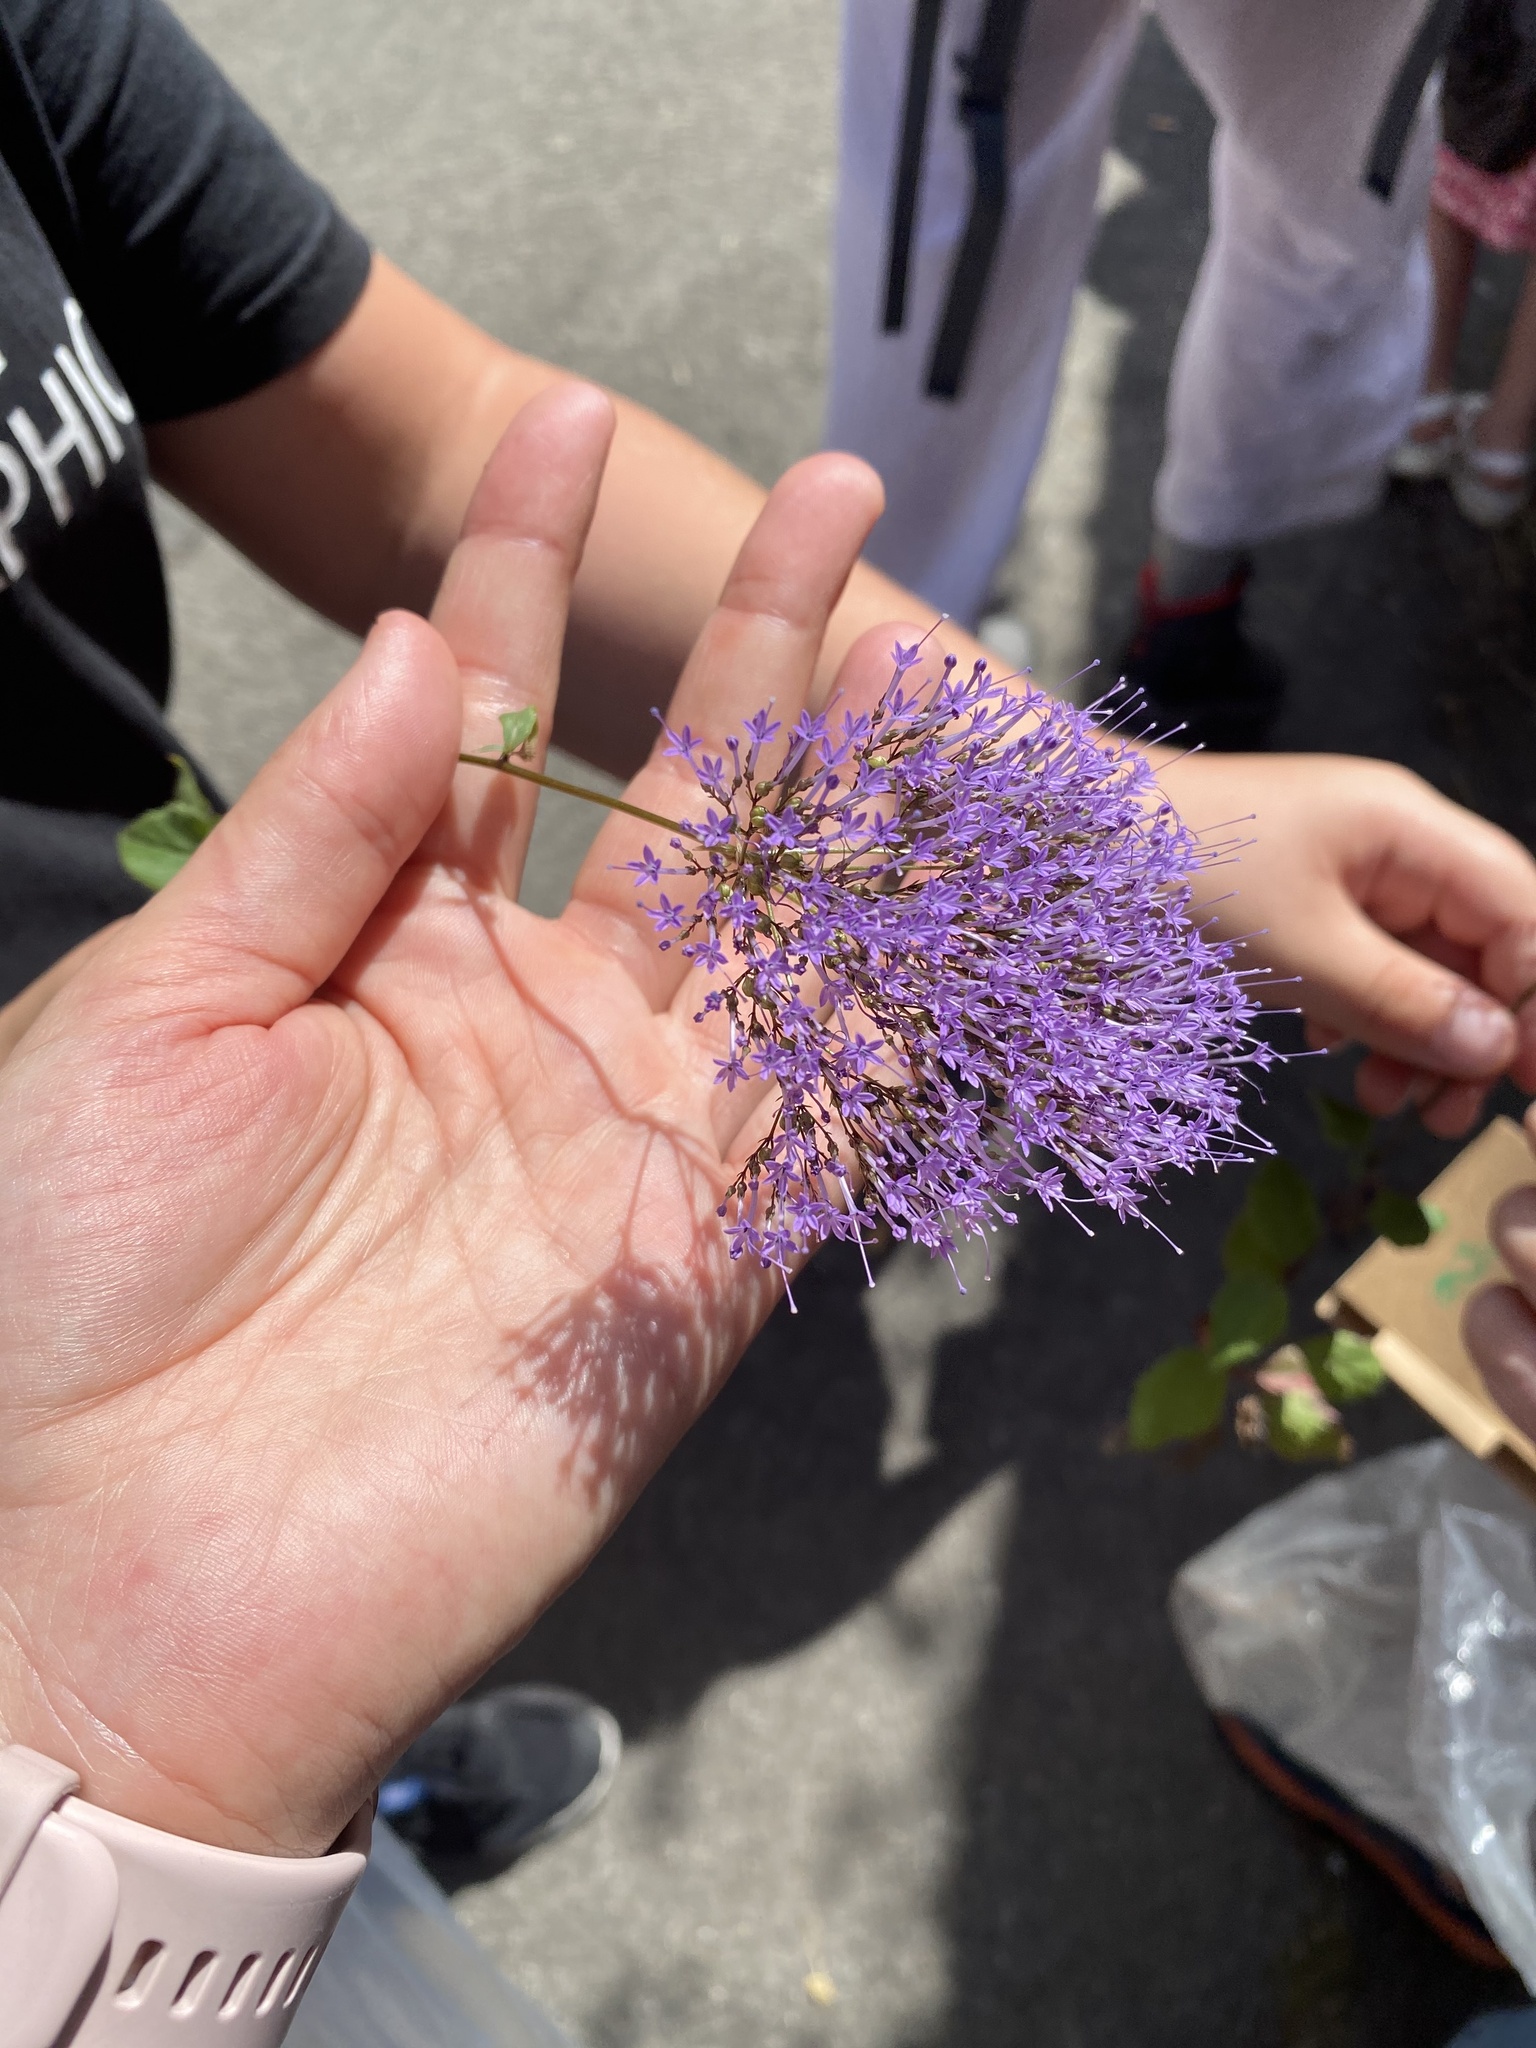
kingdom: Plantae
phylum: Tracheophyta
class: Magnoliopsida
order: Asterales
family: Campanulaceae
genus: Trachelium
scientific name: Trachelium caeruleum
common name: Throatwort
